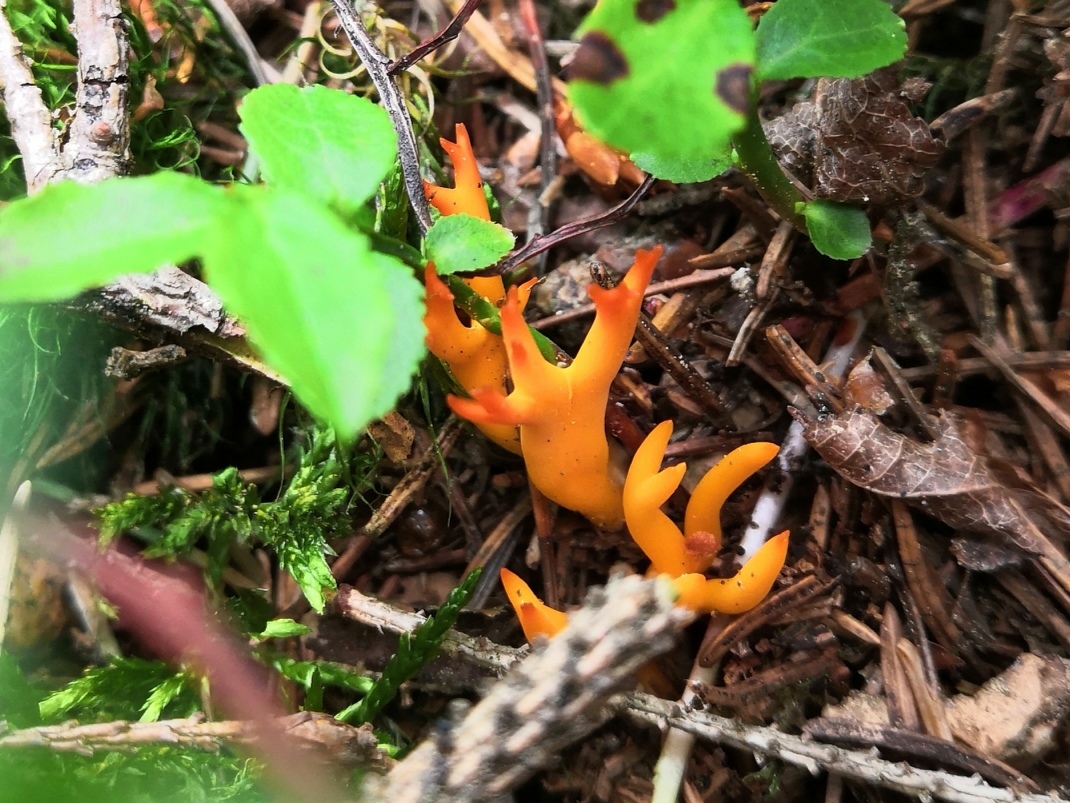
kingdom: Fungi
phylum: Basidiomycota
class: Dacrymycetes
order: Dacrymycetales
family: Dacrymycetaceae
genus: Calocera
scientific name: Calocera viscosa
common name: Yellow stagshorn
